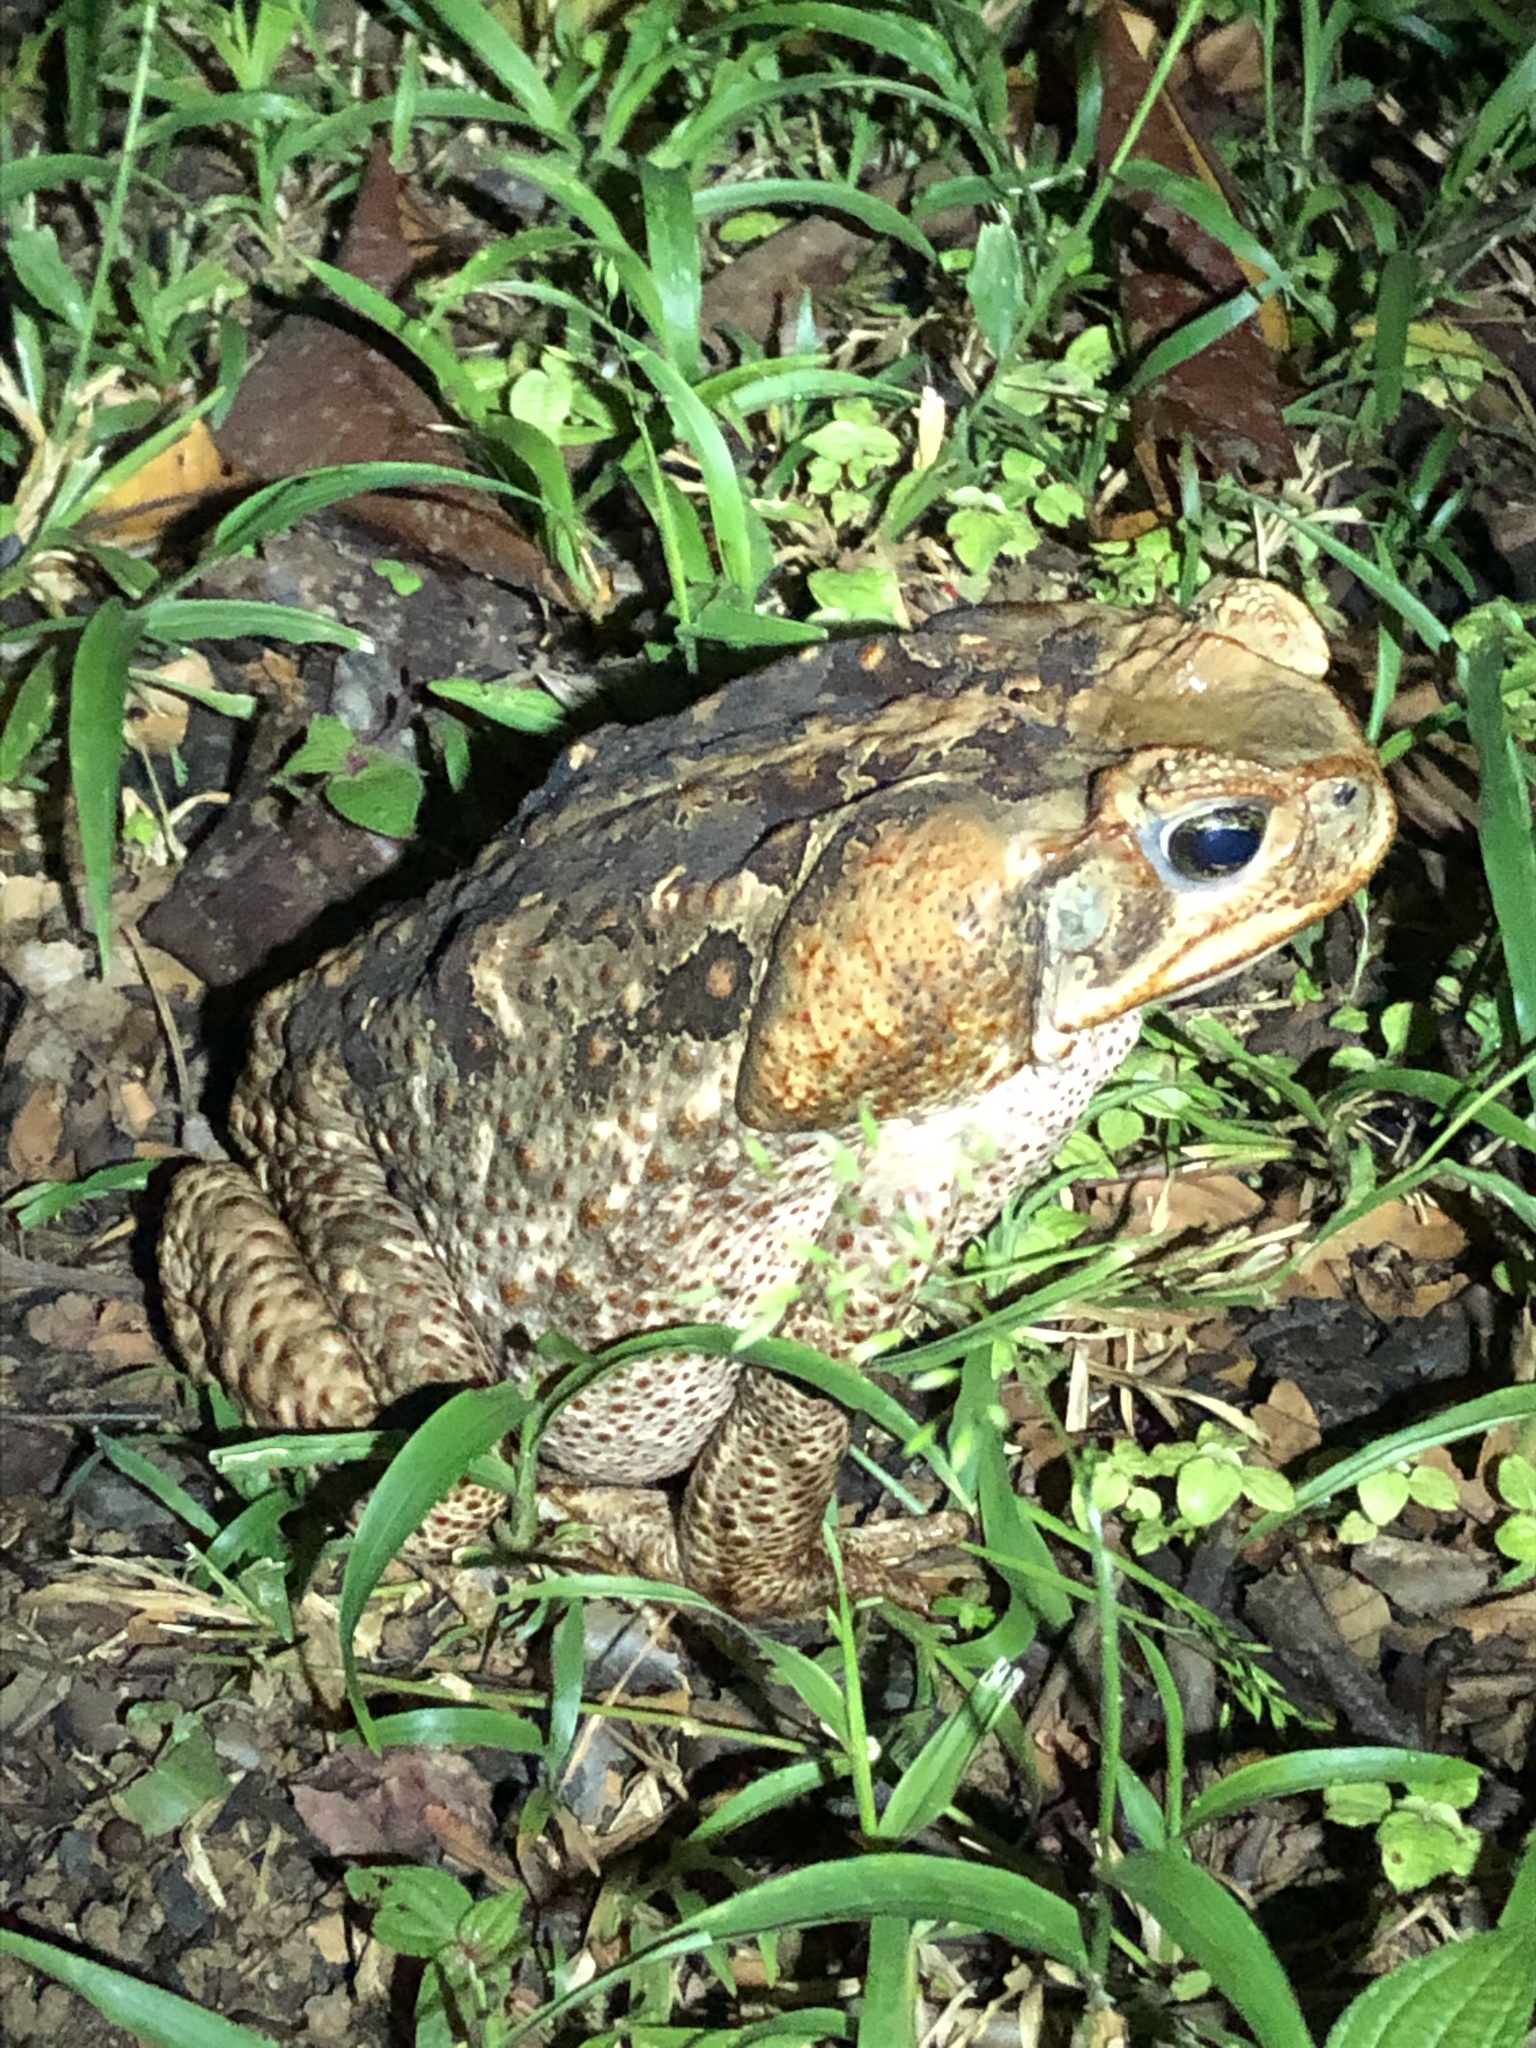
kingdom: Animalia
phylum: Chordata
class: Amphibia
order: Anura
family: Bufonidae
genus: Rhinella
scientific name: Rhinella marina
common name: Cane toad
